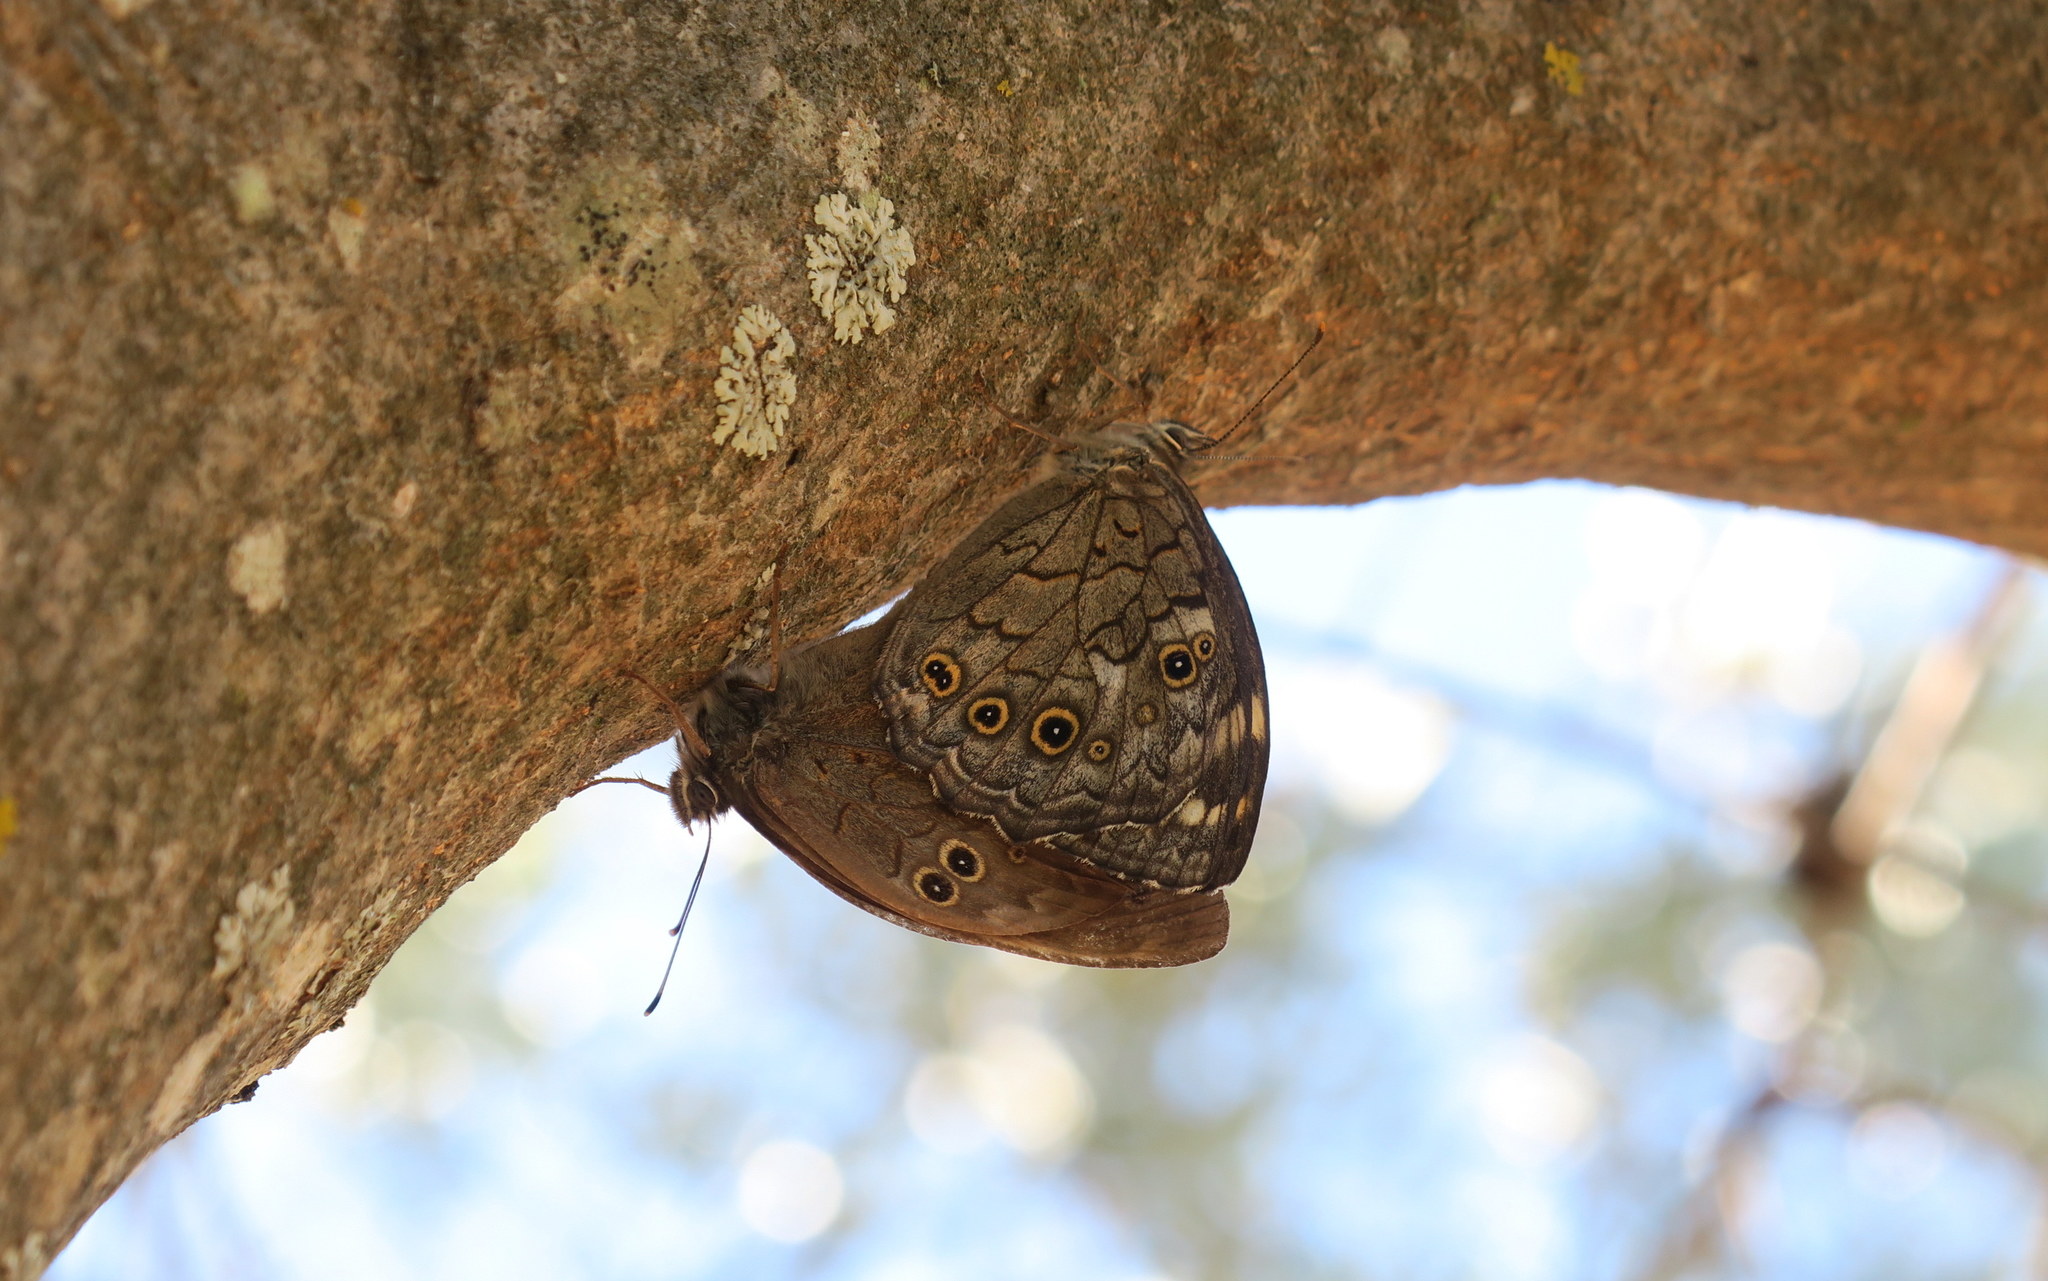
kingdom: Animalia
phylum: Arthropoda
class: Insecta
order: Lepidoptera
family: Nymphalidae
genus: Kirinia
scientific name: Kirinia roxelana
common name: Lattice brown
